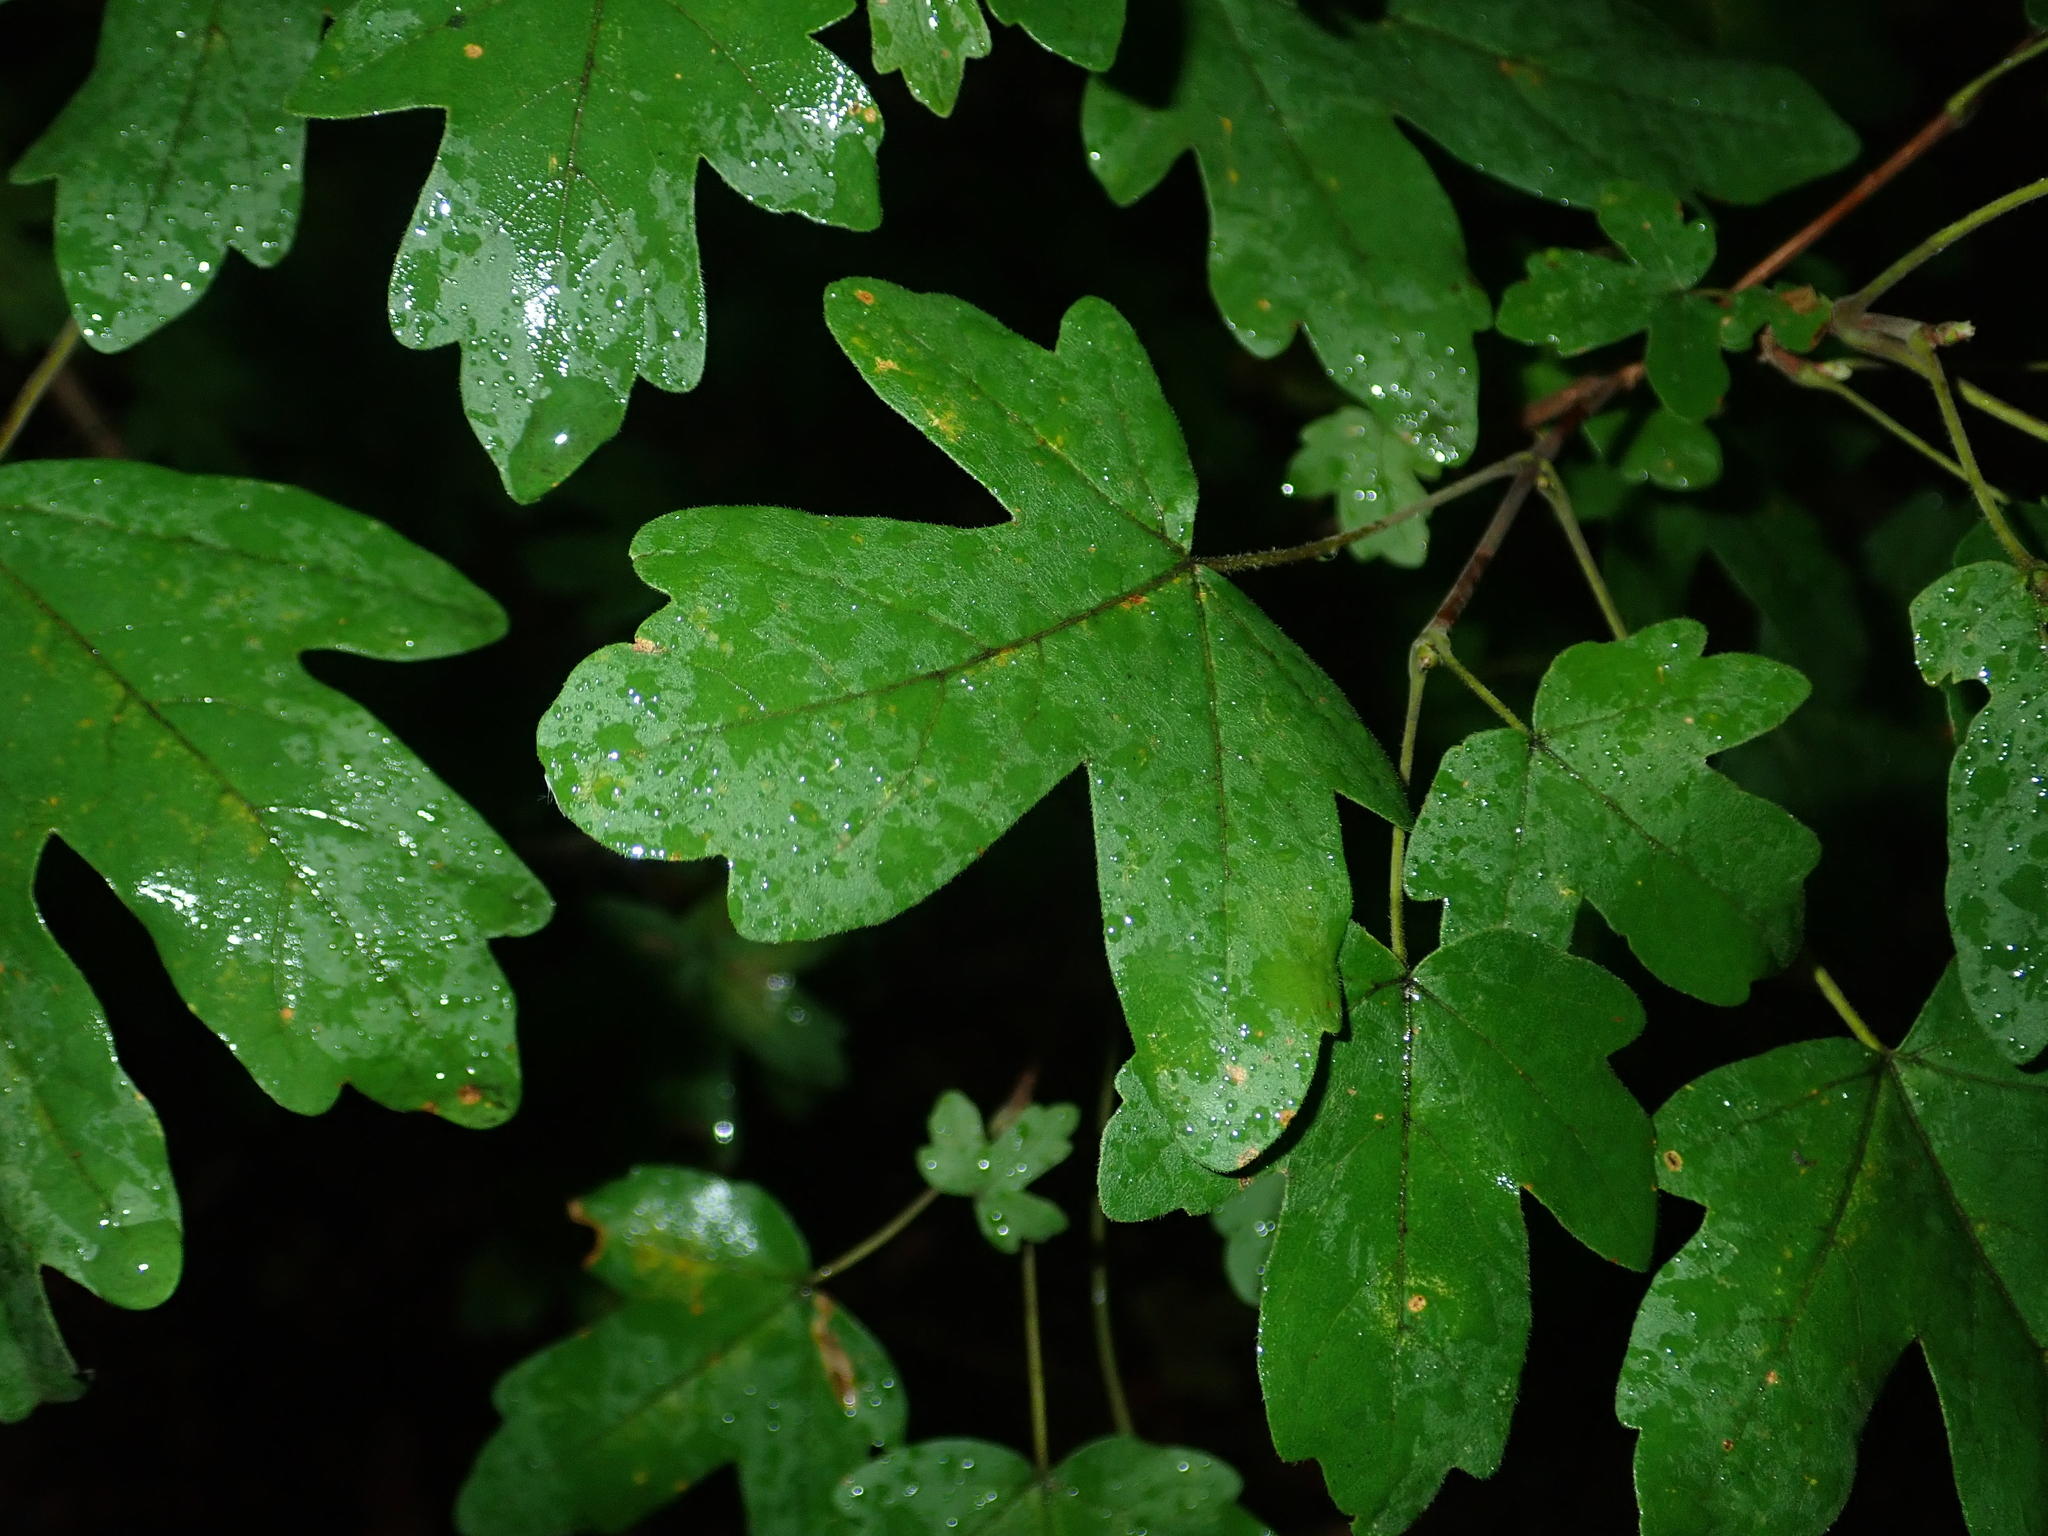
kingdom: Plantae
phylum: Tracheophyta
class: Magnoliopsida
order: Sapindales
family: Sapindaceae
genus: Acer
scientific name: Acer campestre
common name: Field maple
